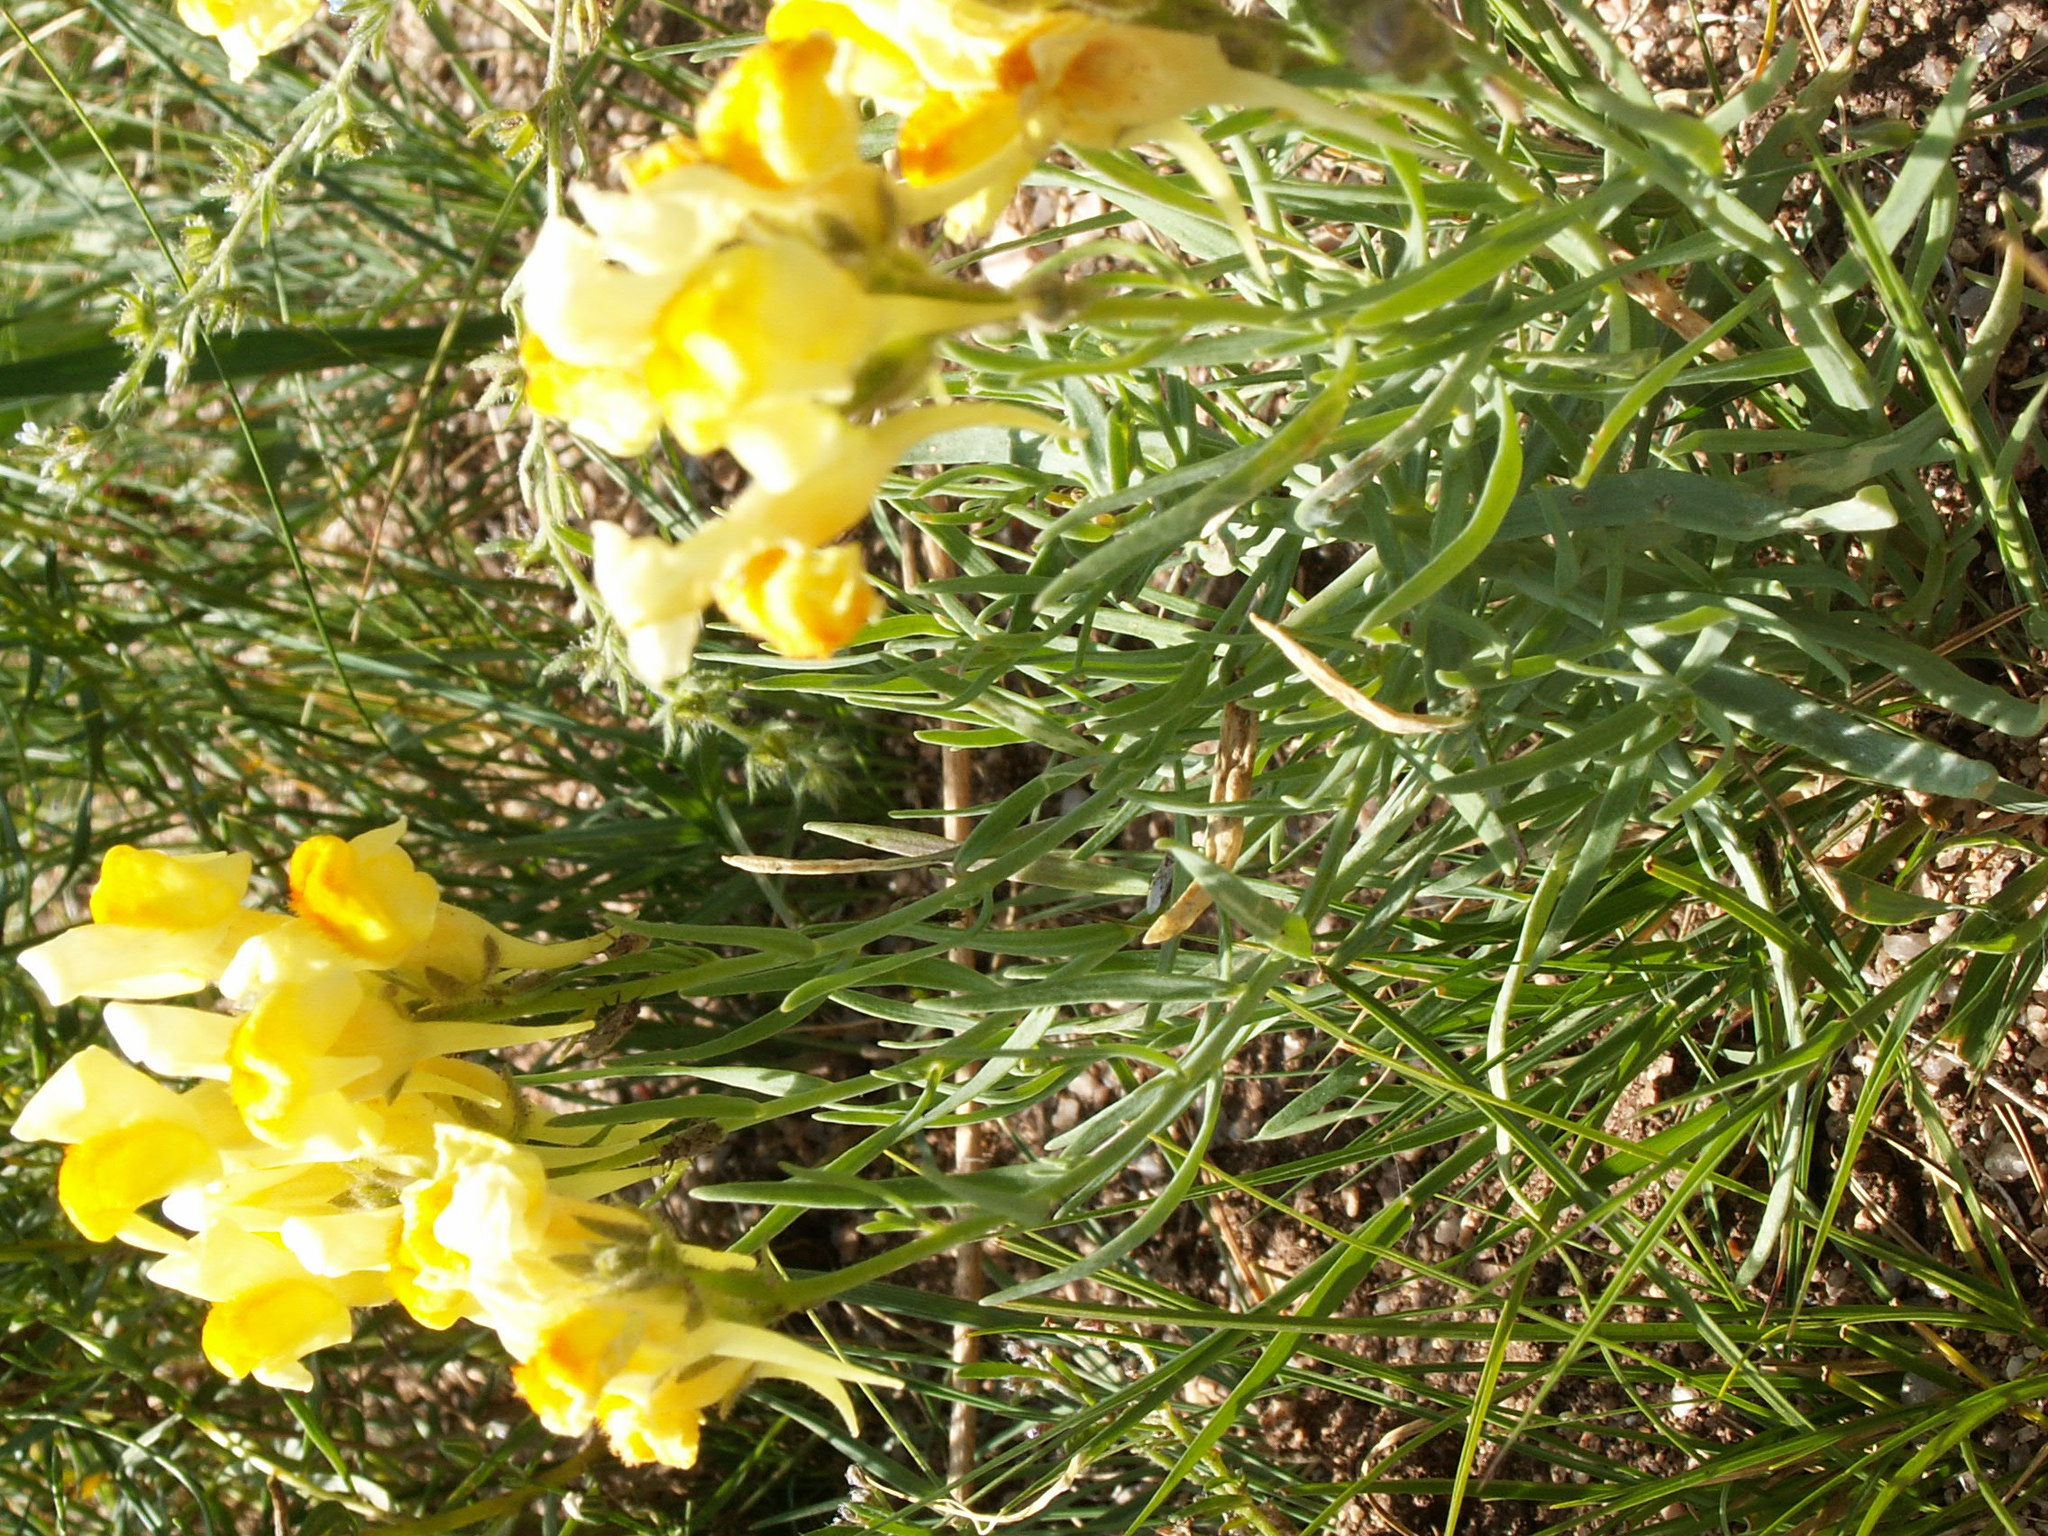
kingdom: Plantae
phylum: Tracheophyta
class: Magnoliopsida
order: Lamiales
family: Plantaginaceae
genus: Linaria
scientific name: Linaria buriatica
